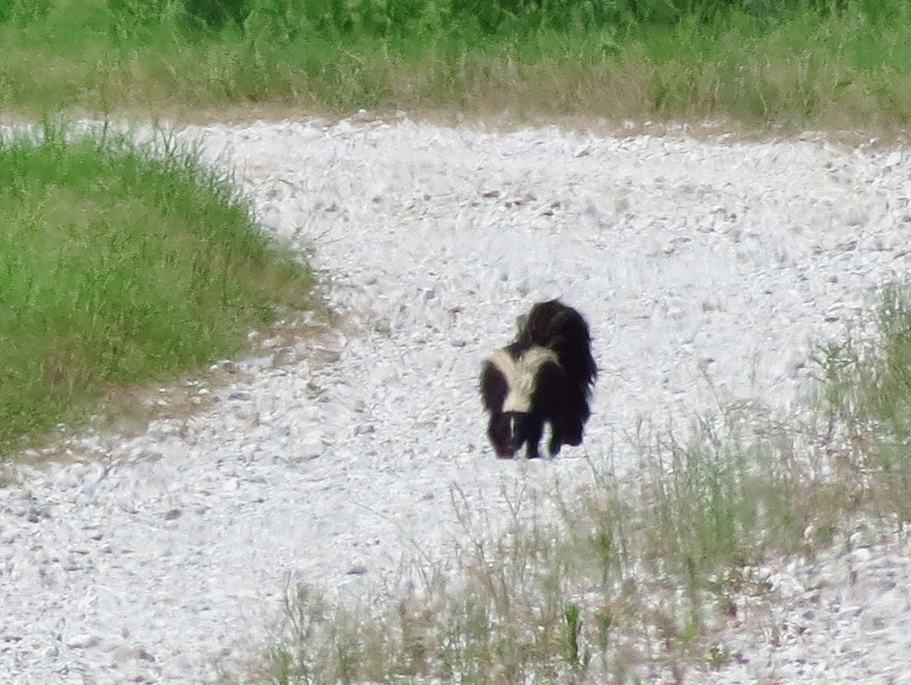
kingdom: Animalia
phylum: Chordata
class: Mammalia
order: Carnivora
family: Mephitidae
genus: Mephitis
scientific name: Mephitis mephitis
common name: Striped skunk
